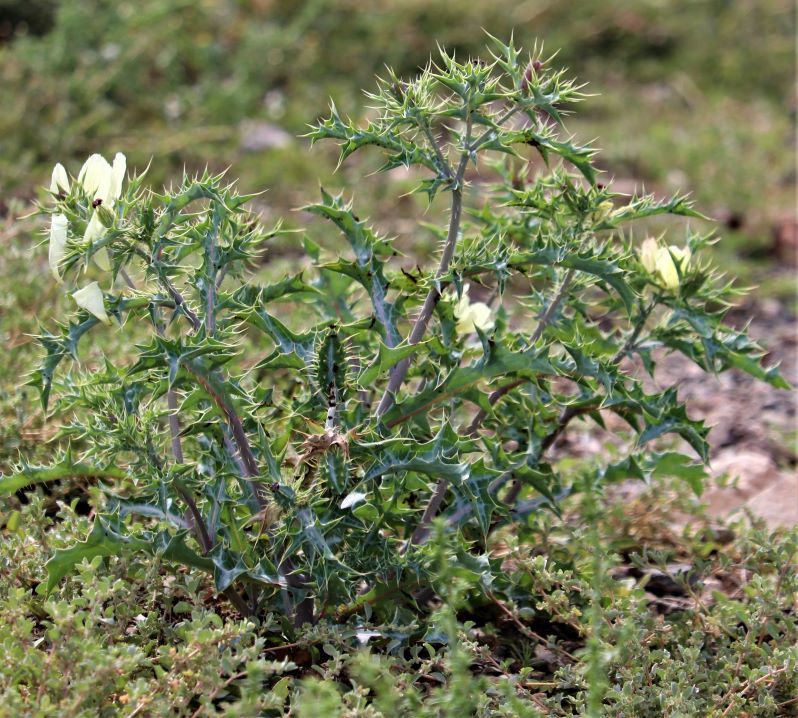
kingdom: Plantae
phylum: Tracheophyta
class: Magnoliopsida
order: Ranunculales
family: Papaveraceae
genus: Argemone
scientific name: Argemone ochroleuca
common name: White-flower mexican-poppy
